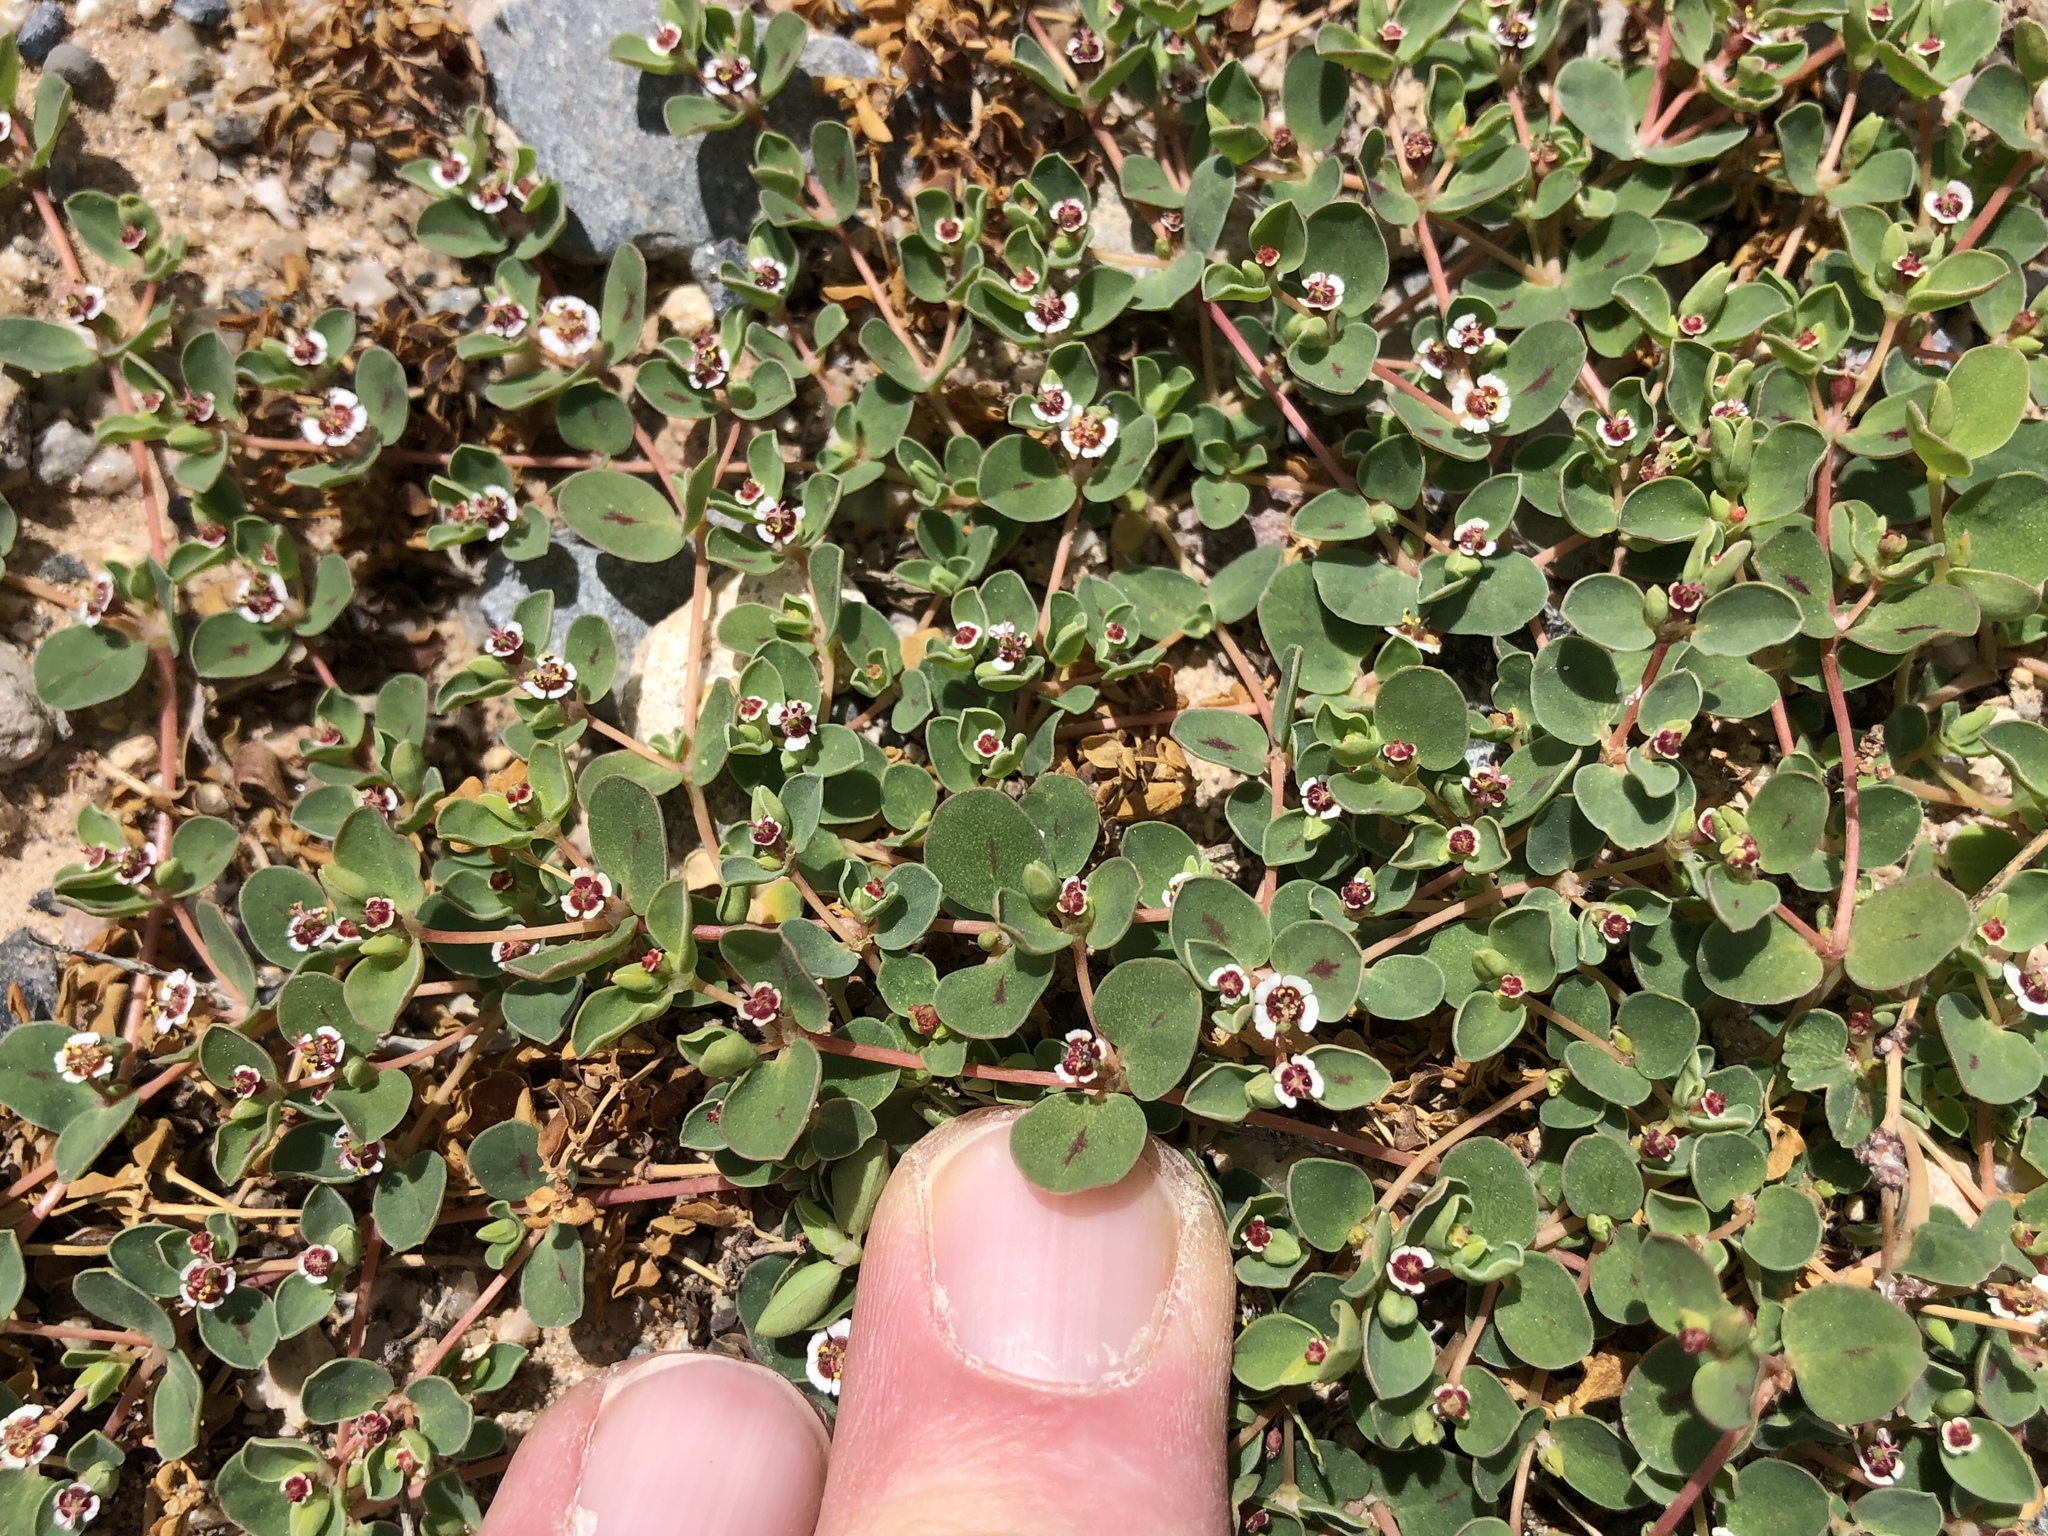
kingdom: Plantae
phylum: Tracheophyta
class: Magnoliopsida
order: Malpighiales
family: Euphorbiaceae
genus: Euphorbia
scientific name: Euphorbia albomarginata
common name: Whitemargin sandmat
